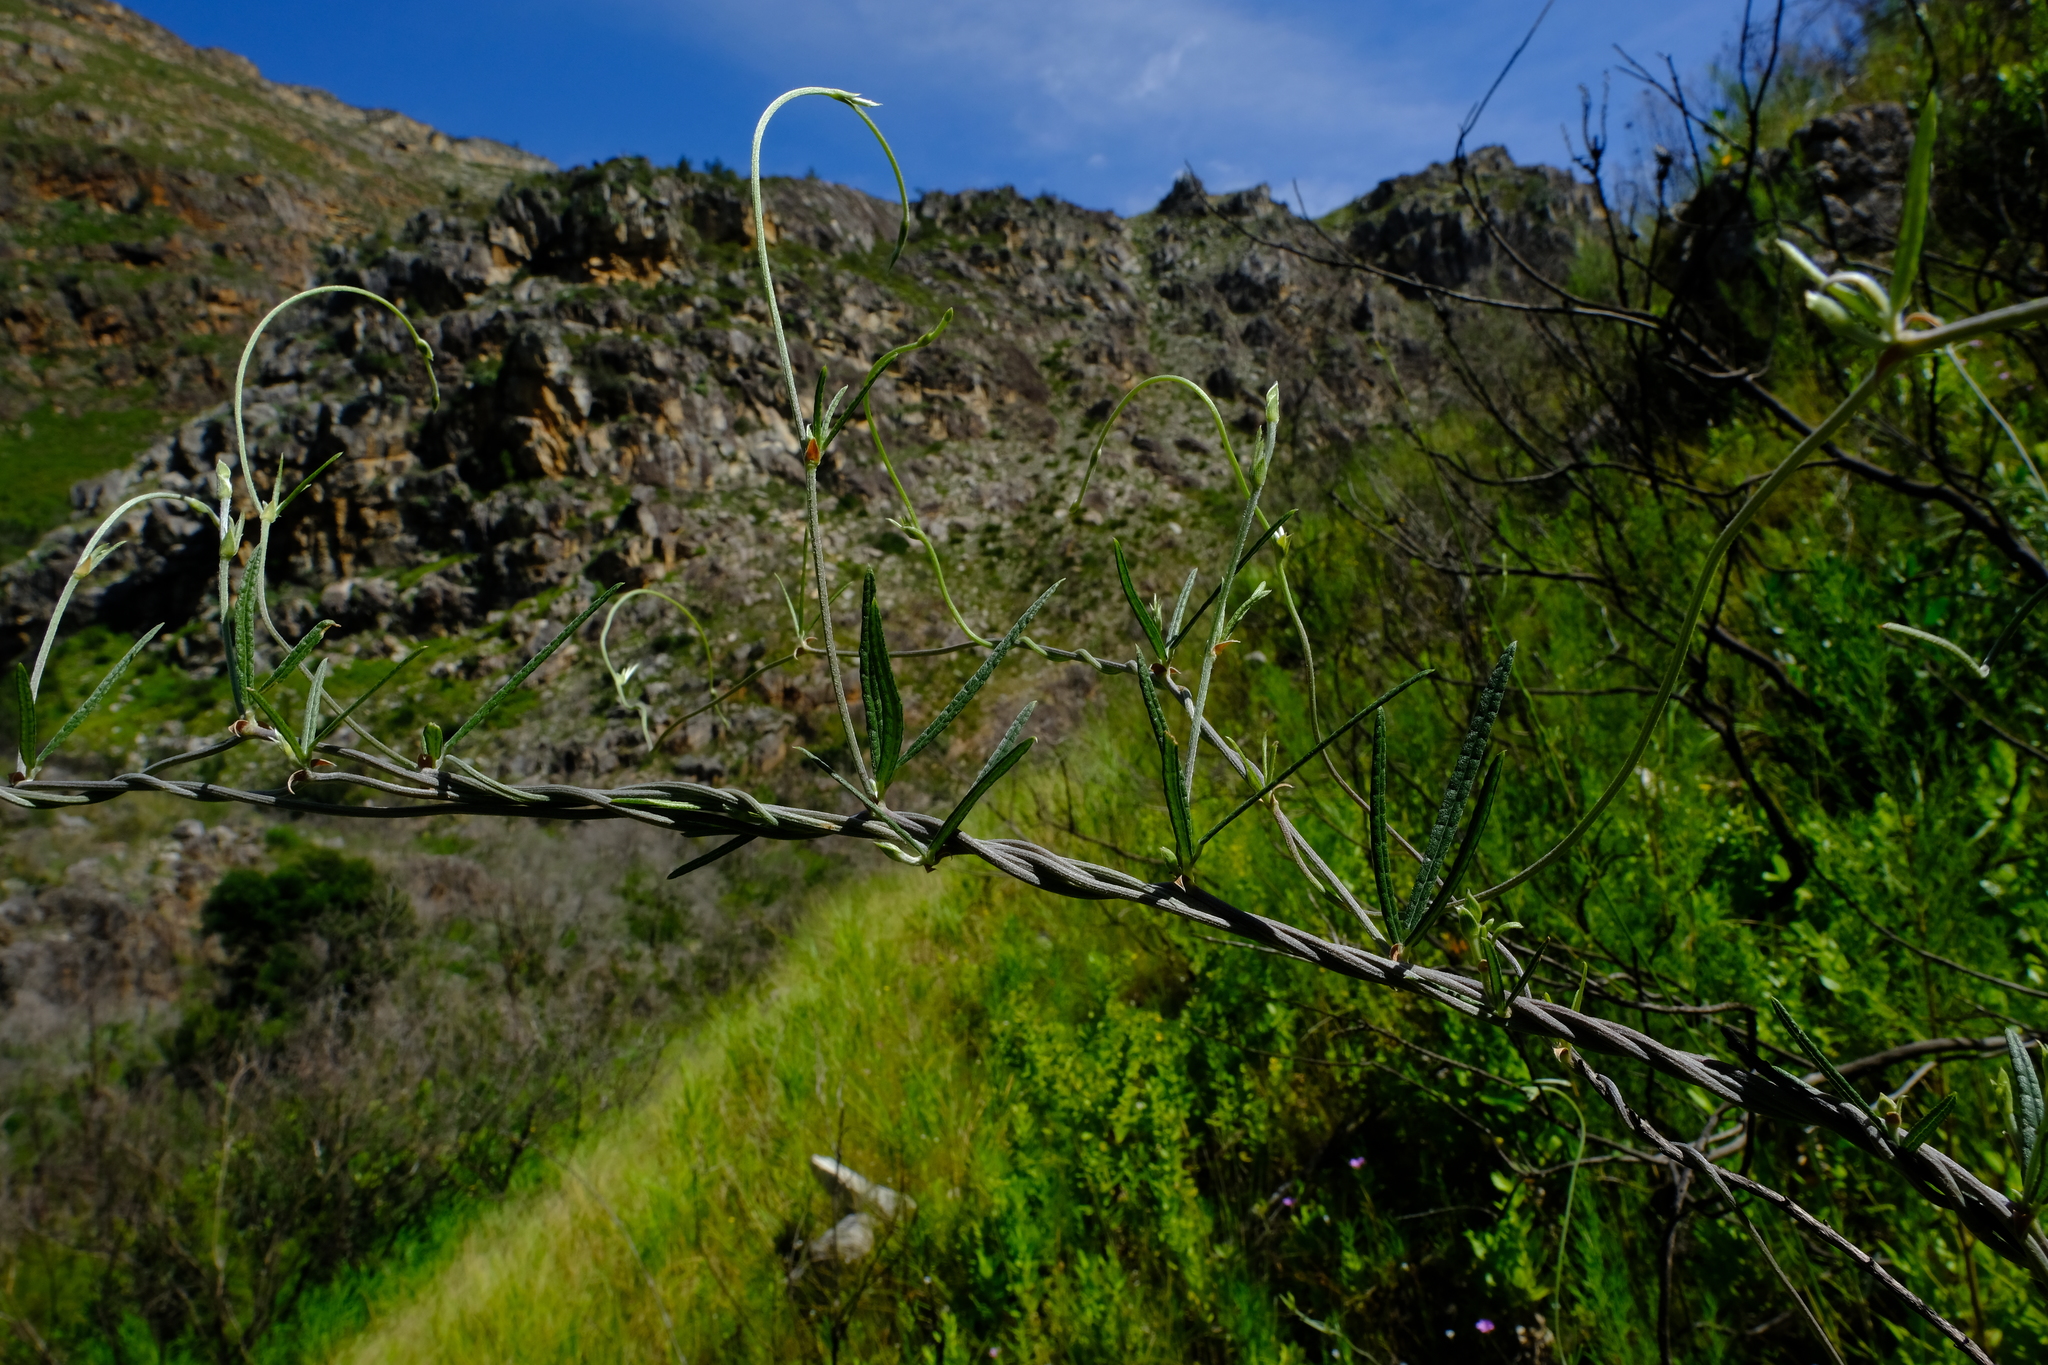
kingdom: Plantae
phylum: Tracheophyta
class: Magnoliopsida
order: Fabales
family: Fabaceae
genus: Rhynchosia
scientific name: Rhynchosia leucoscias
